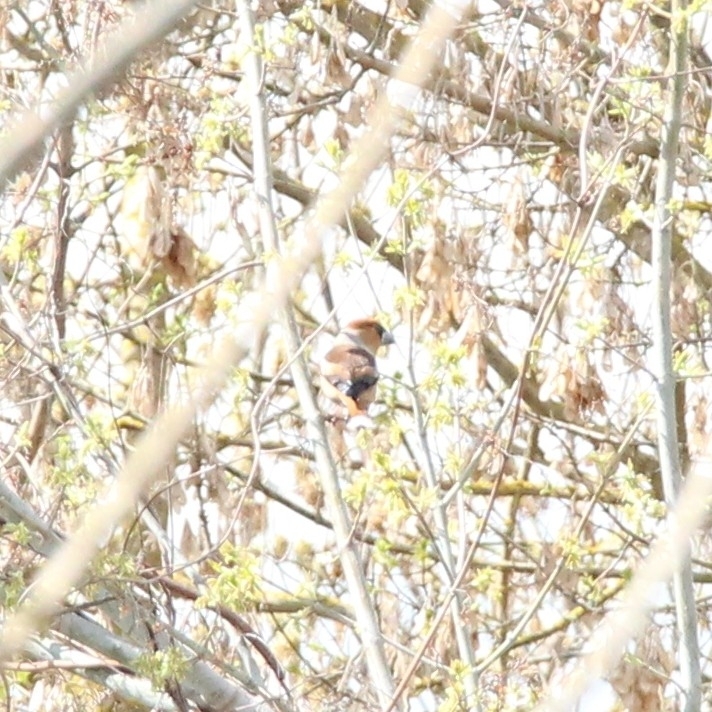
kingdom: Animalia
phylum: Chordata
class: Aves
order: Passeriformes
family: Fringillidae
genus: Coccothraustes
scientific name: Coccothraustes coccothraustes
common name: Hawfinch
